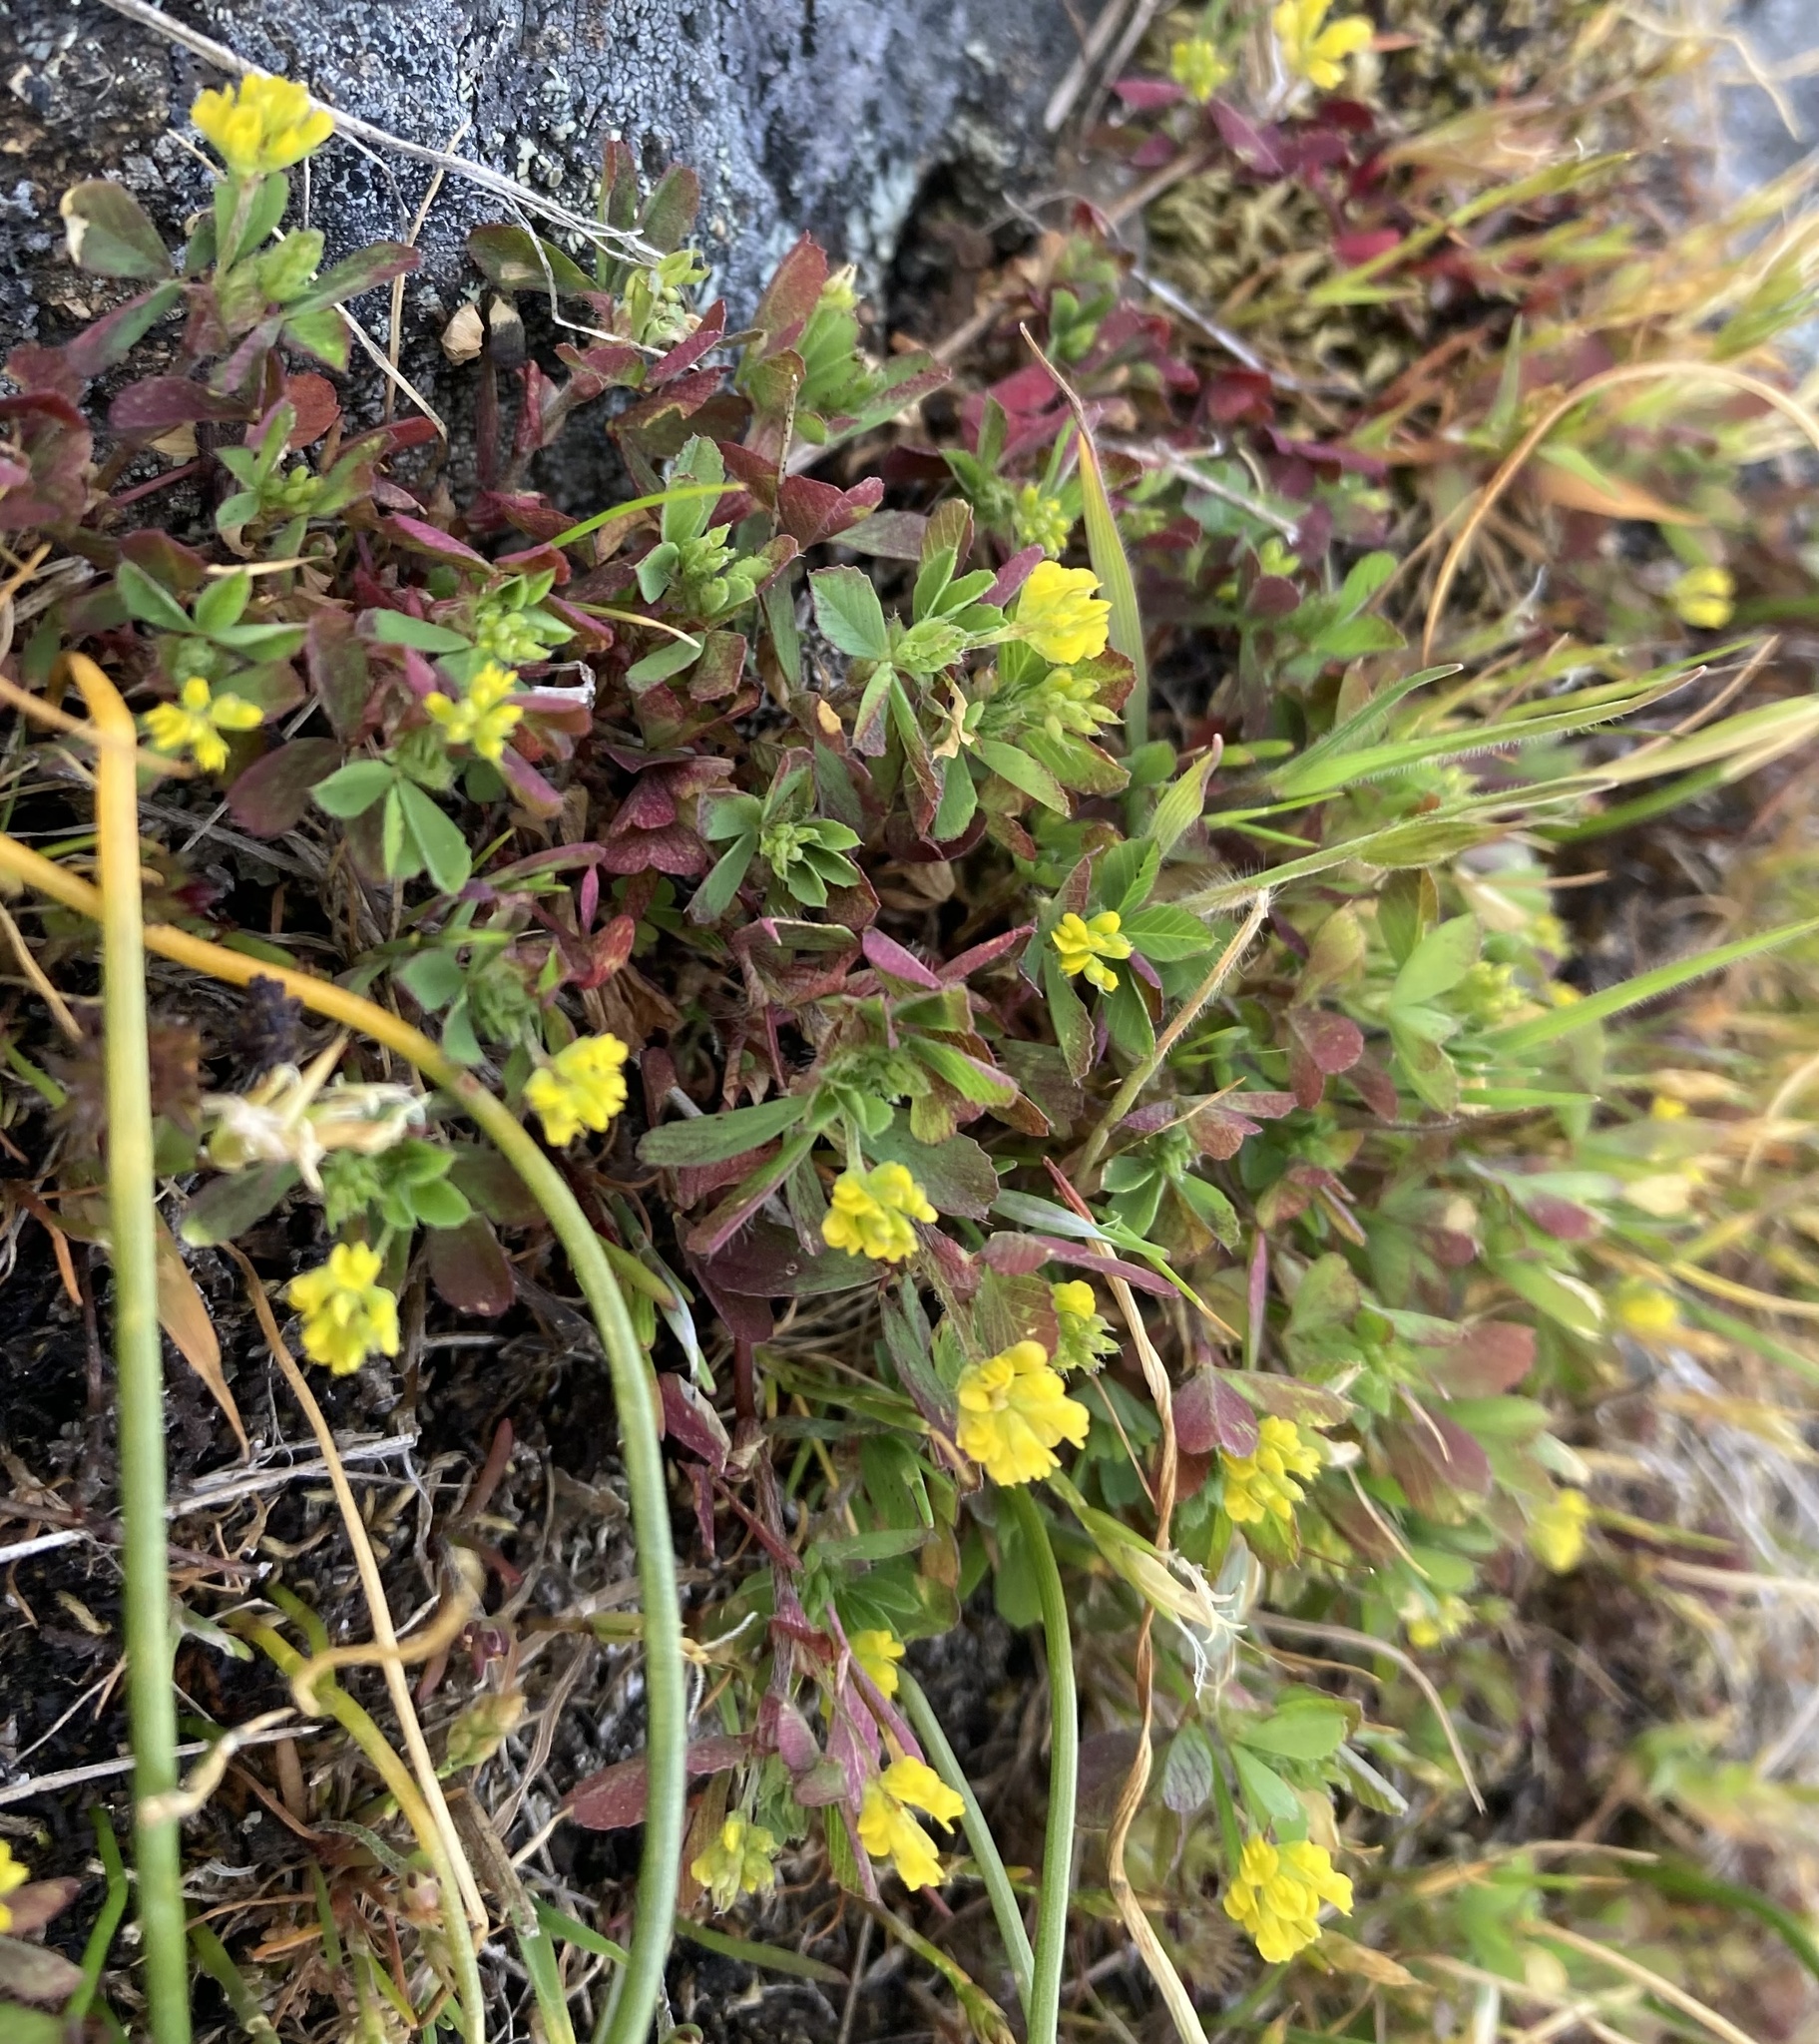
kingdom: Plantae
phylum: Tracheophyta
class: Magnoliopsida
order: Fabales
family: Fabaceae
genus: Trifolium
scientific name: Trifolium dubium
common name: Suckling clover
